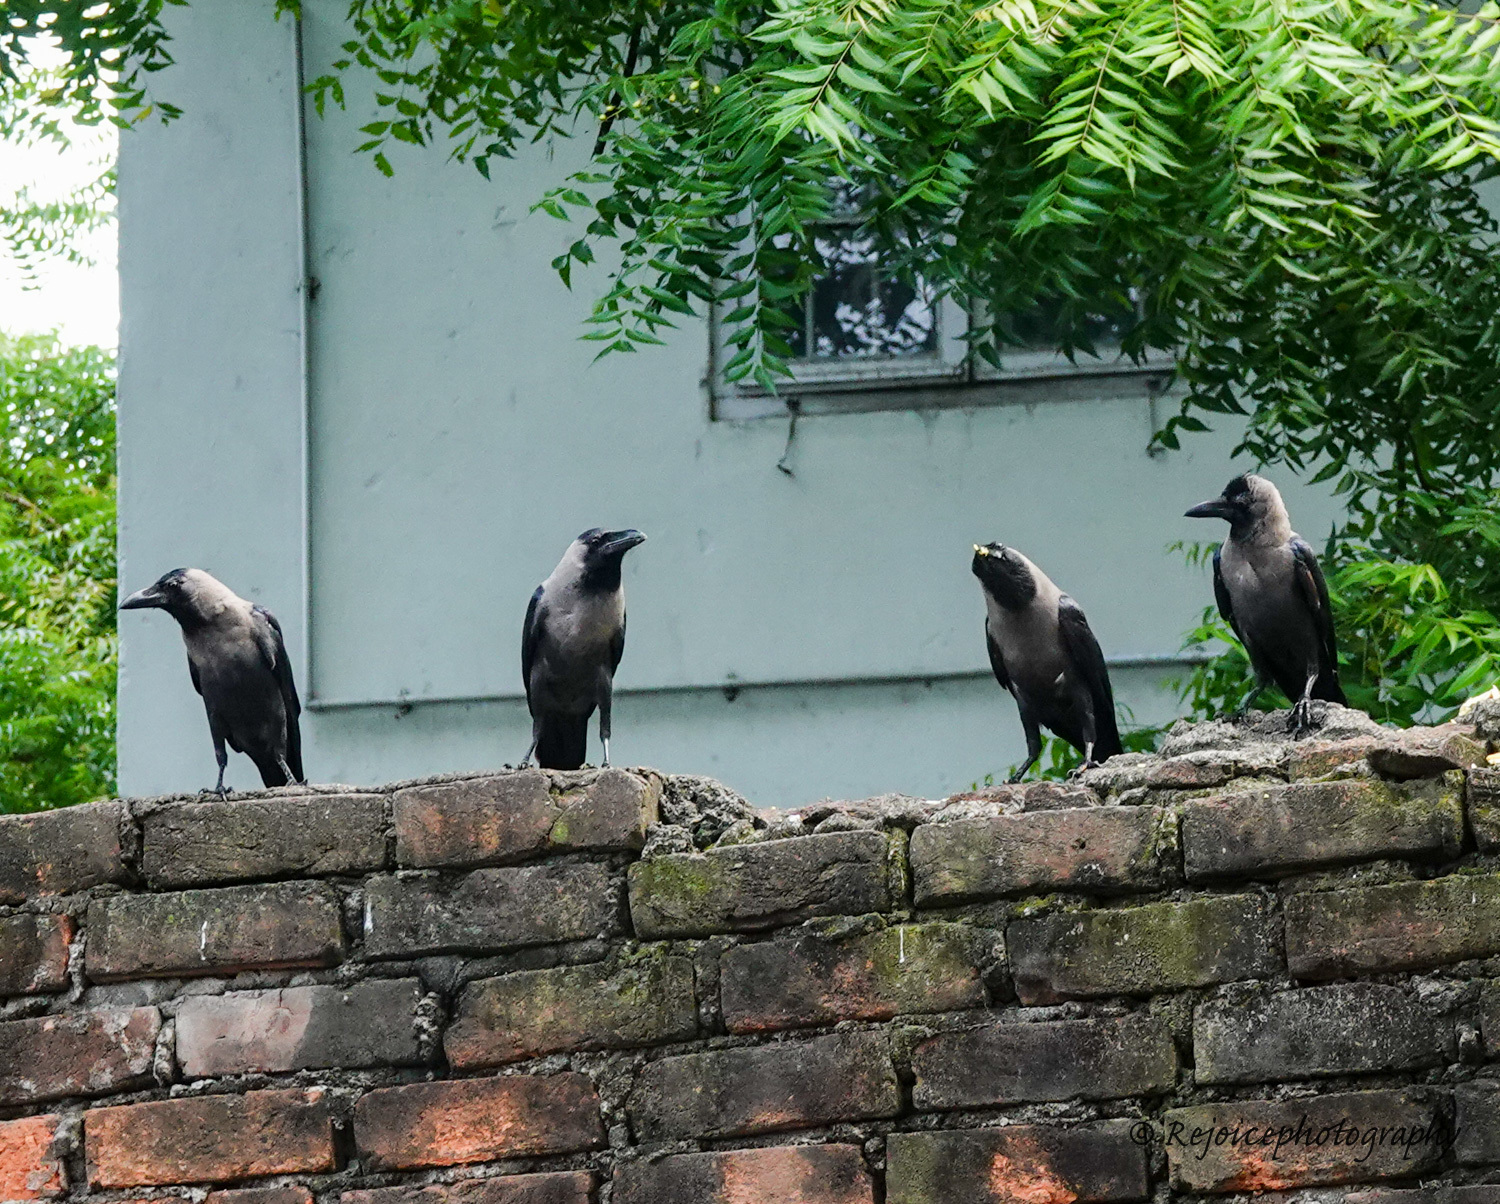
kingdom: Animalia
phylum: Chordata
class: Aves
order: Passeriformes
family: Corvidae
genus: Corvus
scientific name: Corvus splendens
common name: House crow
